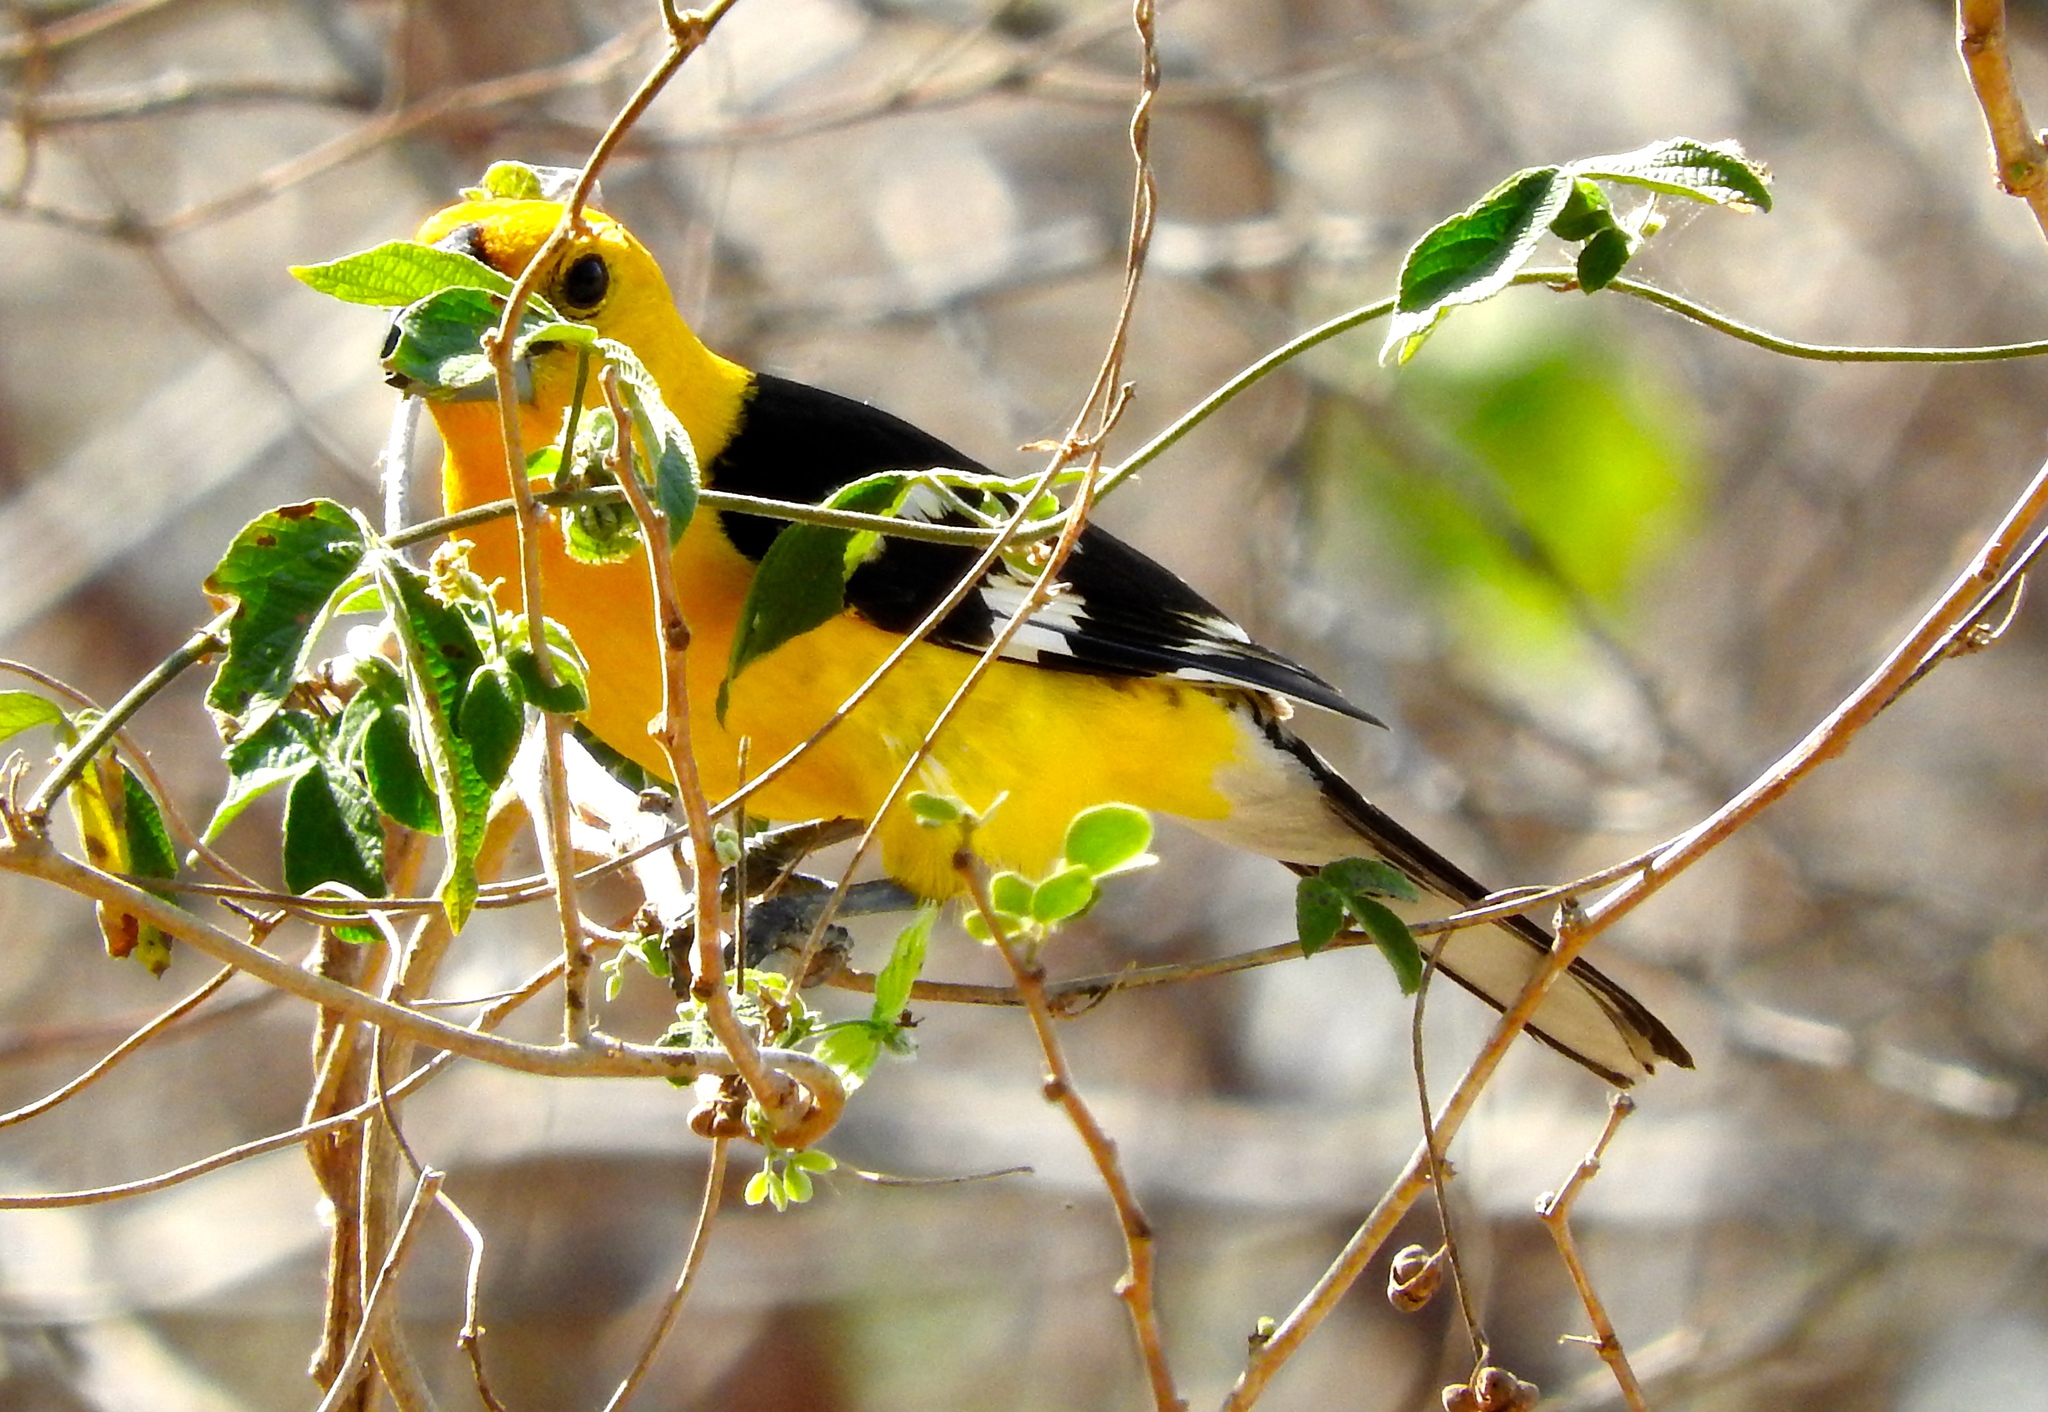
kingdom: Animalia
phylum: Chordata
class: Aves
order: Passeriformes
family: Cardinalidae
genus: Pheucticus
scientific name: Pheucticus chrysopeplus
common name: Yellow grosbeak
